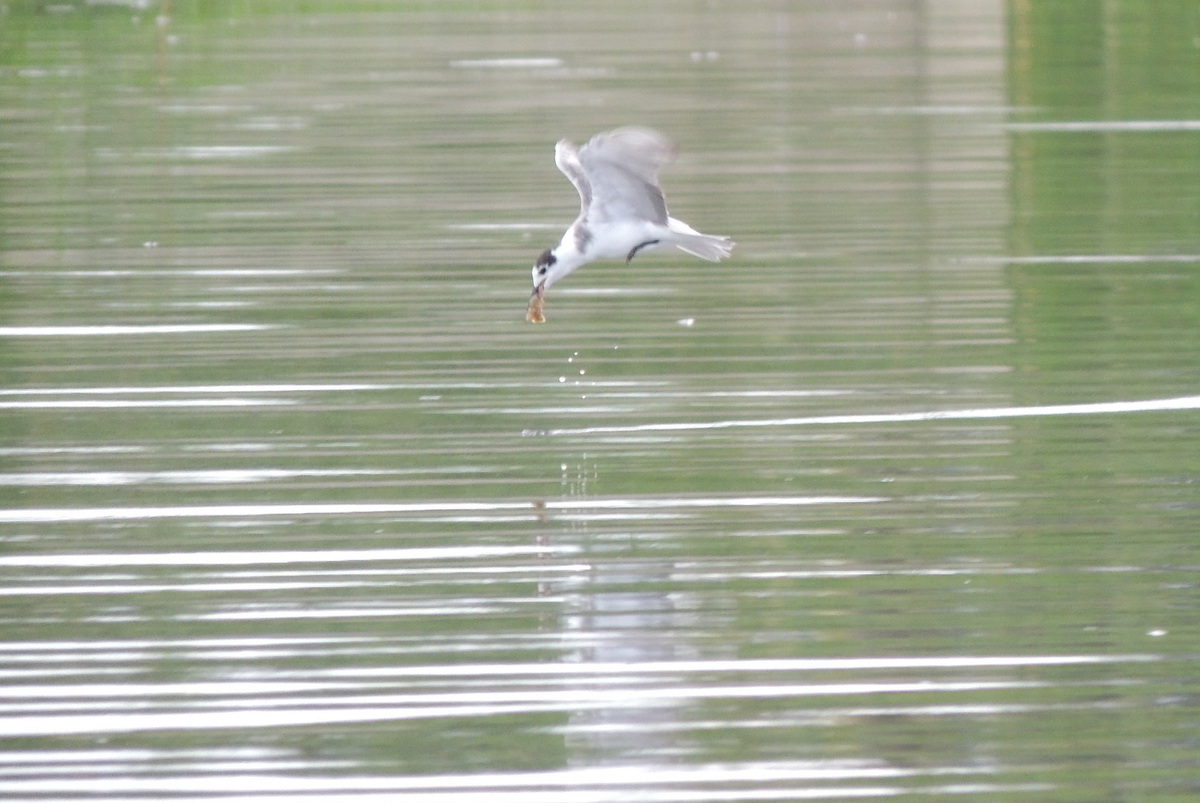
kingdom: Animalia
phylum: Chordata
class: Aves
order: Charadriiformes
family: Laridae
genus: Chlidonias
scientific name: Chlidonias niger
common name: Black tern
